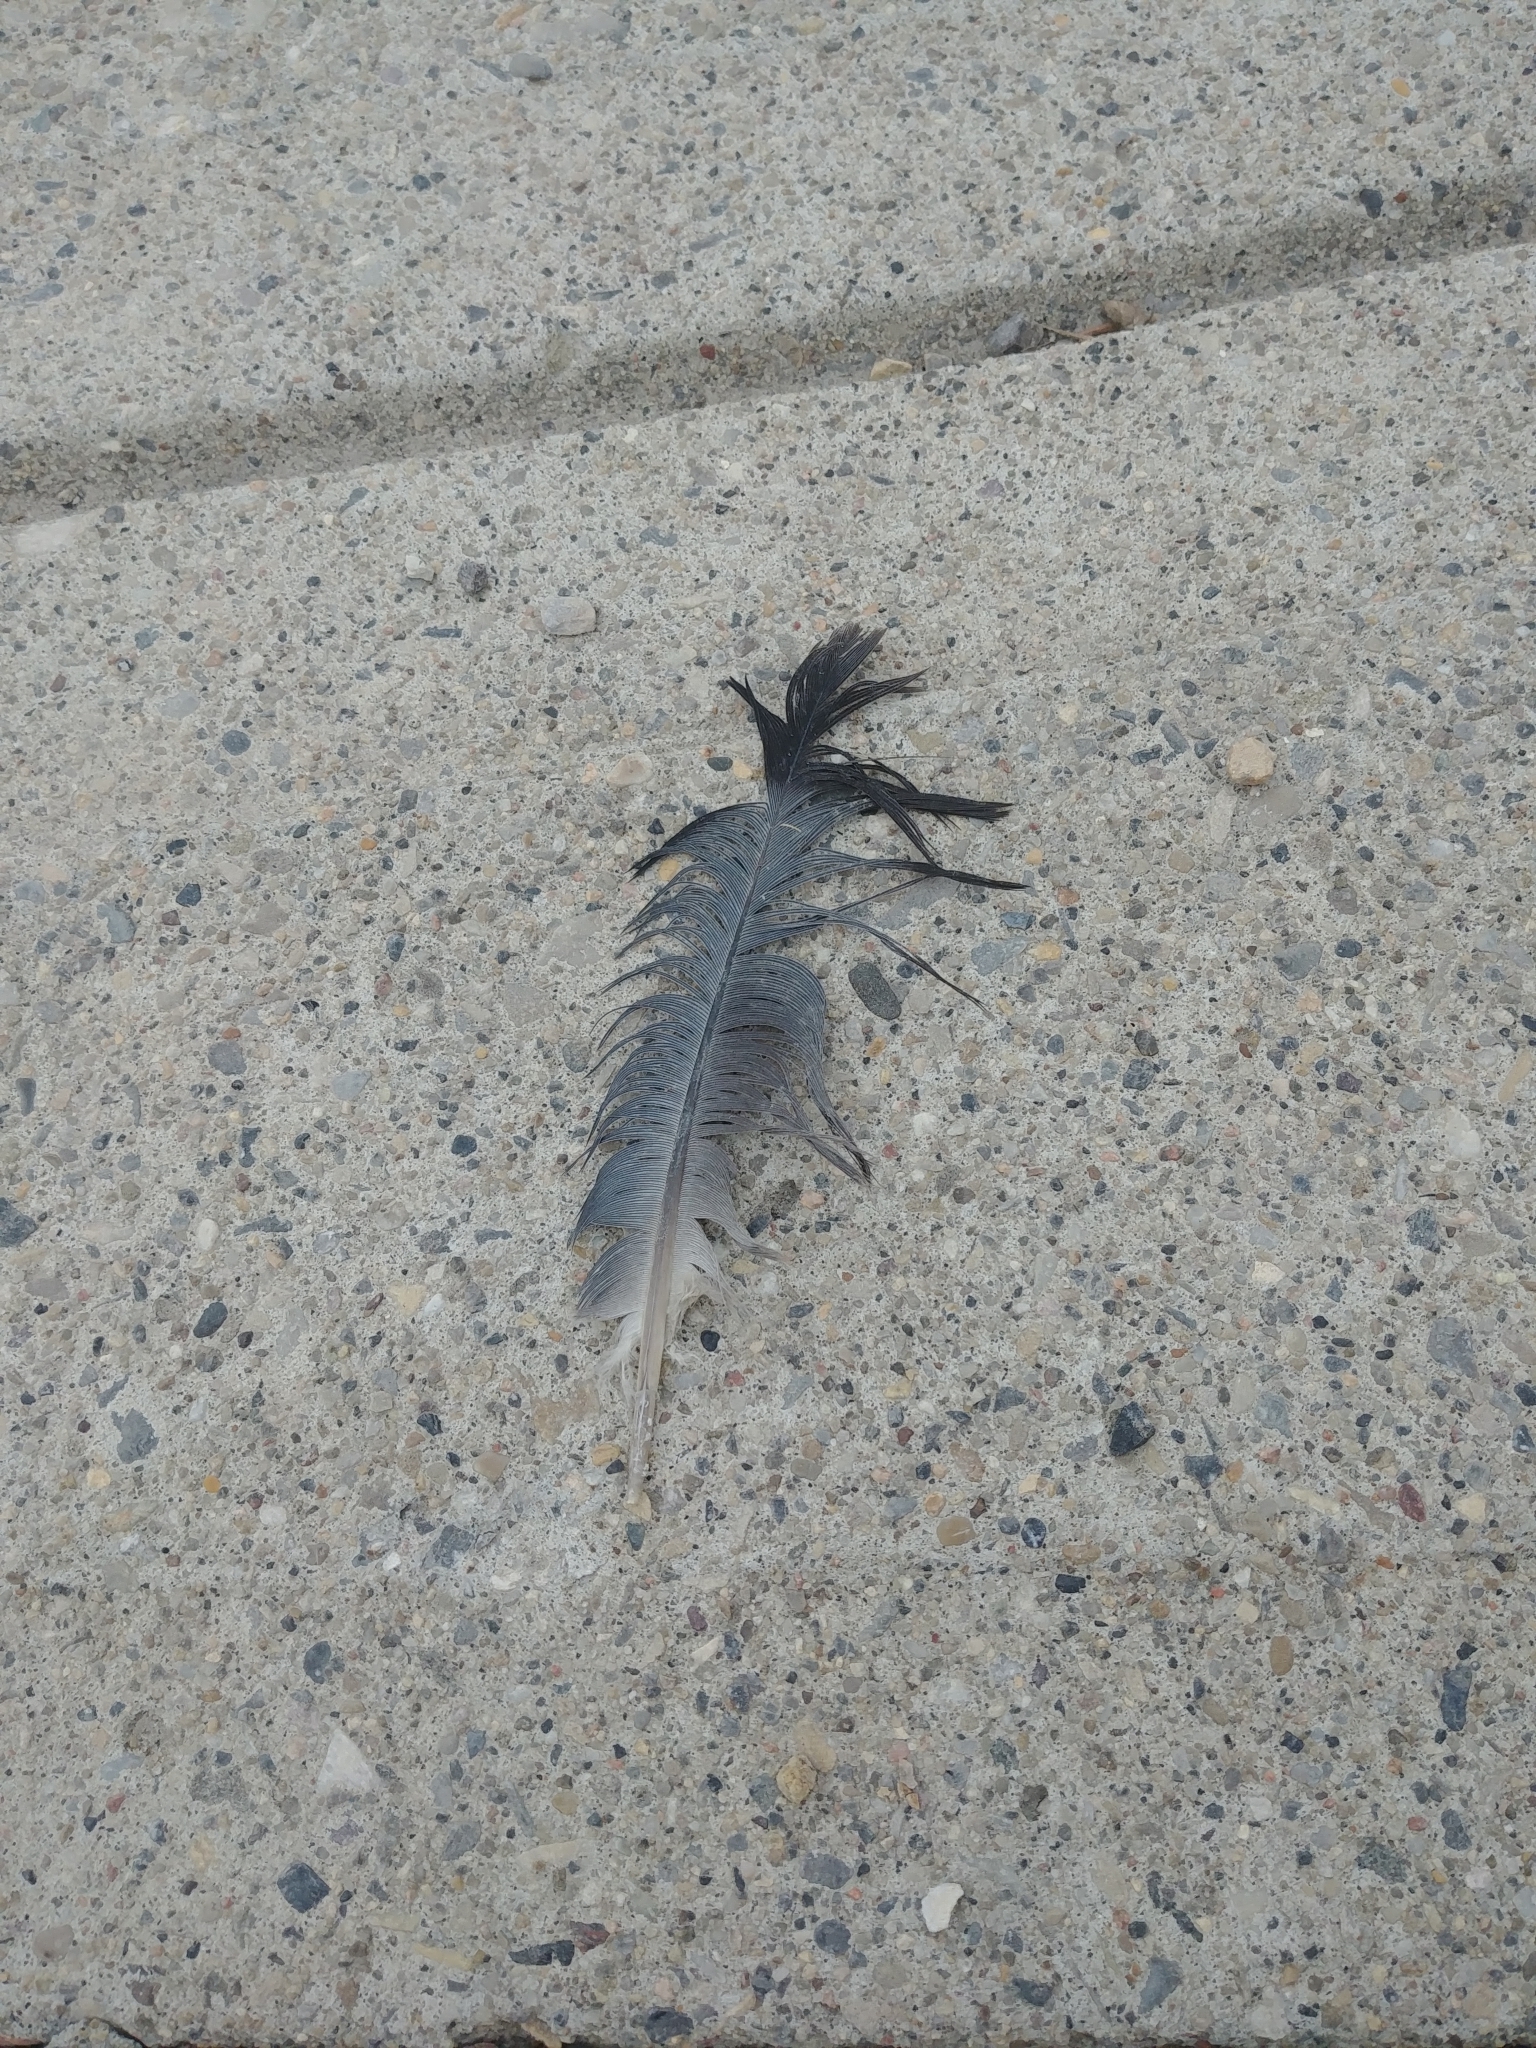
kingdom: Animalia
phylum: Chordata
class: Aves
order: Columbiformes
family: Columbidae
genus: Columba
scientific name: Columba livia
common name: Rock pigeon
